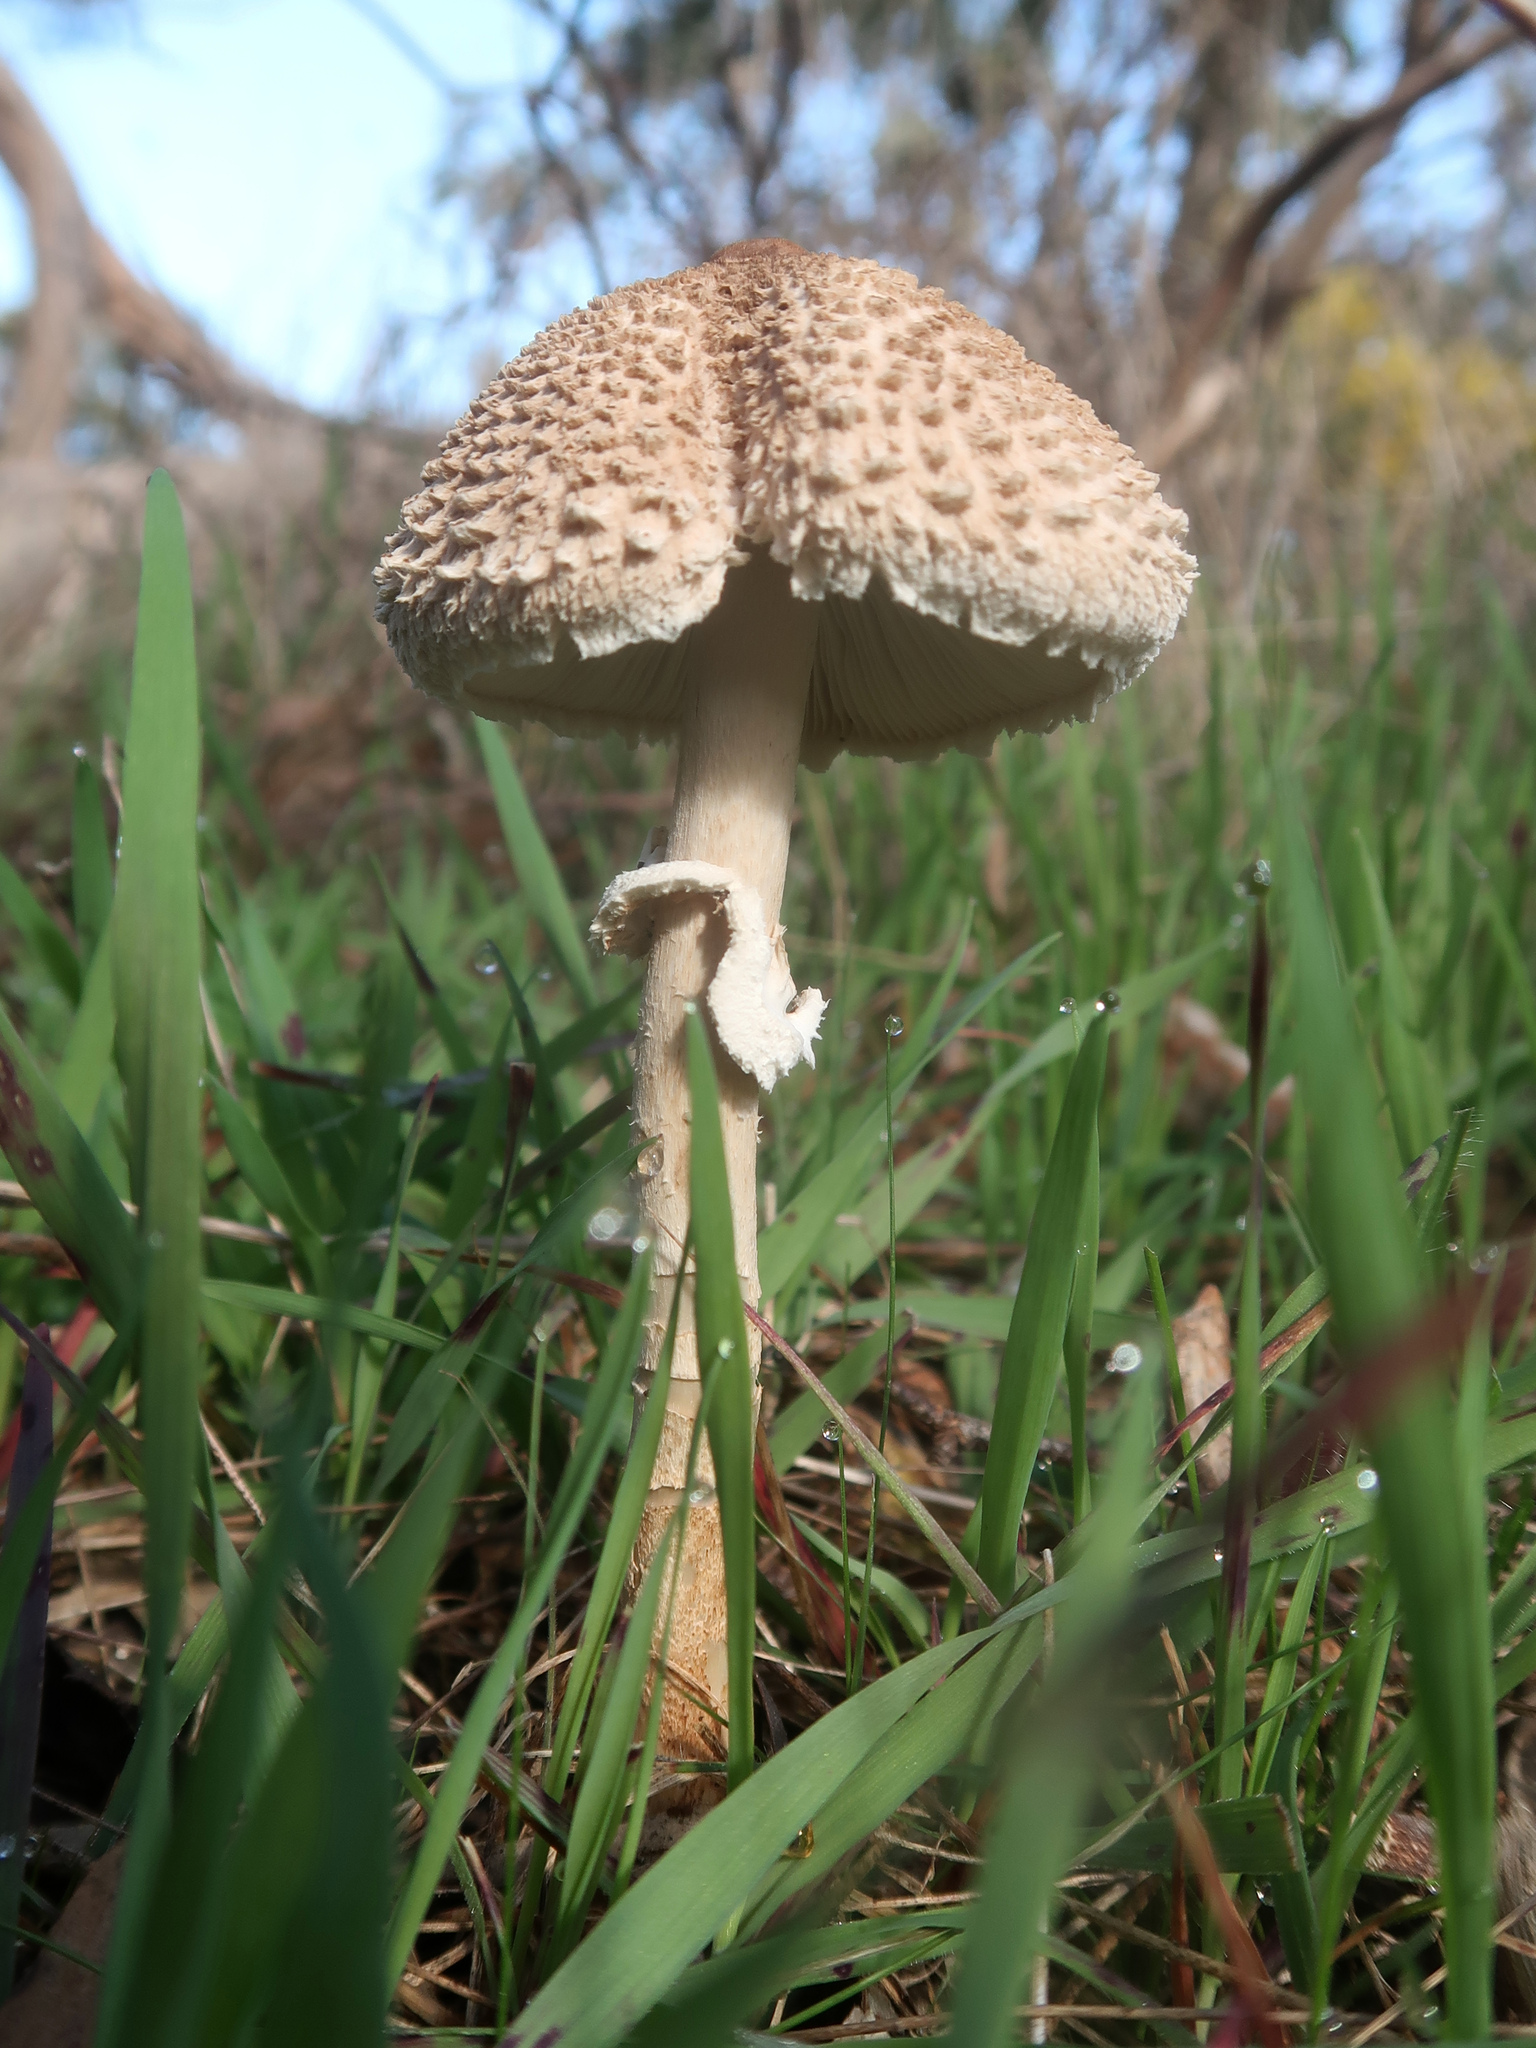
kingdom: Fungi
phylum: Basidiomycota
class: Agaricomycetes
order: Agaricales
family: Agaricaceae
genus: Macrolepiota
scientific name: Macrolepiota clelandii
